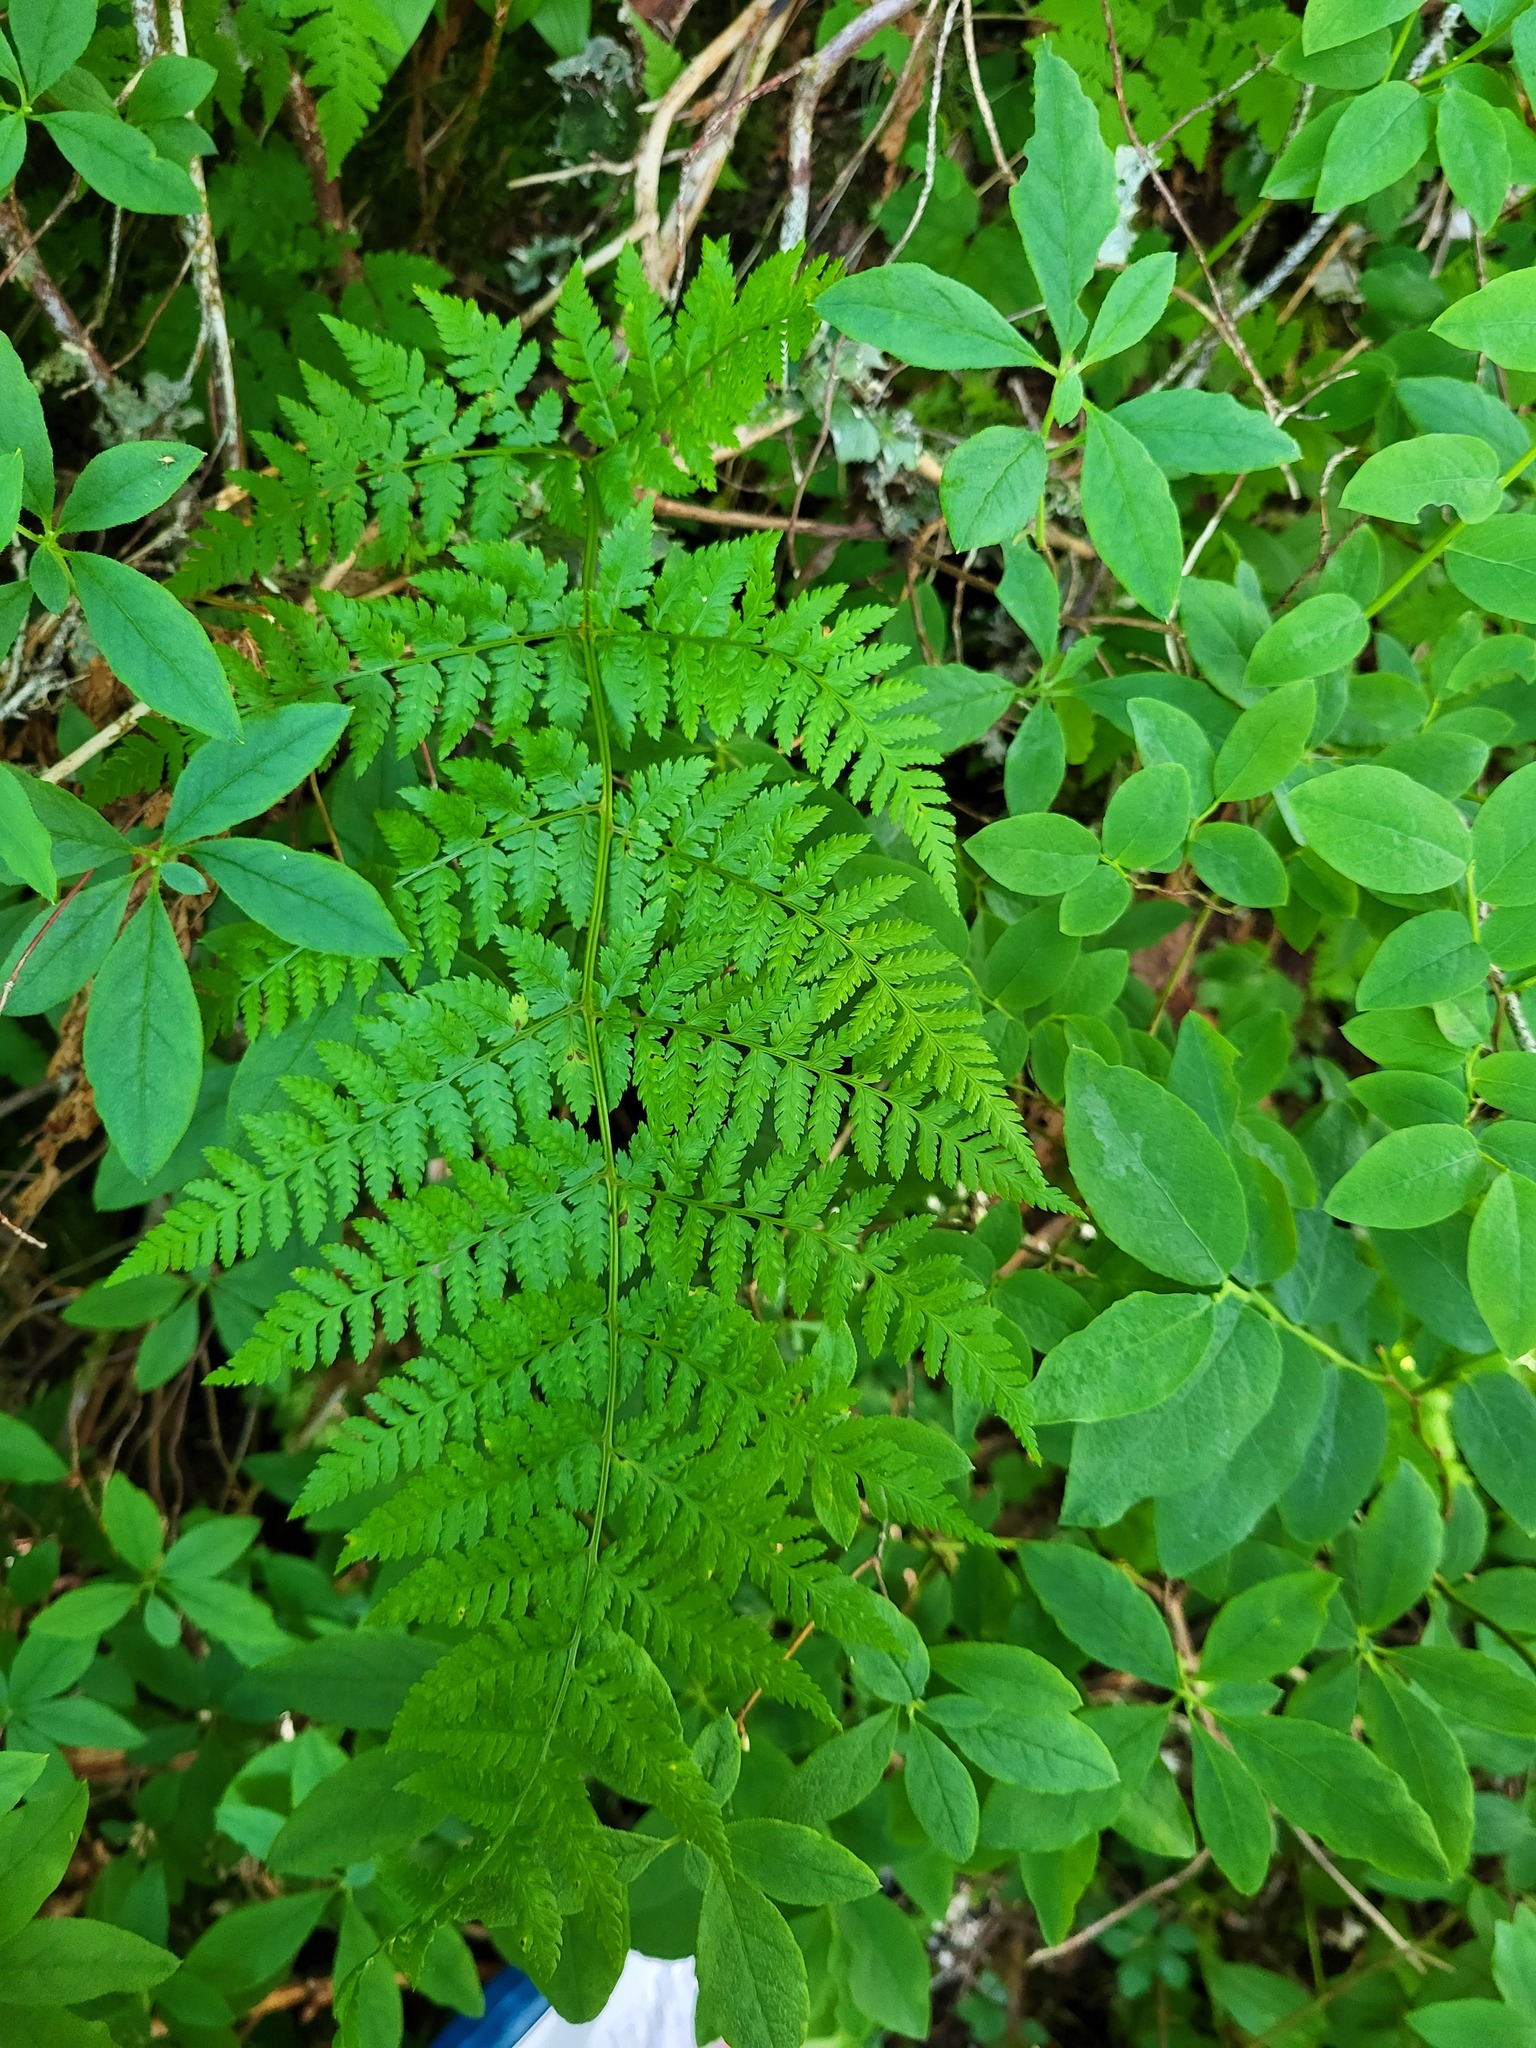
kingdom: Plantae
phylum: Tracheophyta
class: Polypodiopsida
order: Polypodiales
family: Dryopteridaceae
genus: Dryopteris
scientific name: Dryopteris expansa
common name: Northern buckler fern
